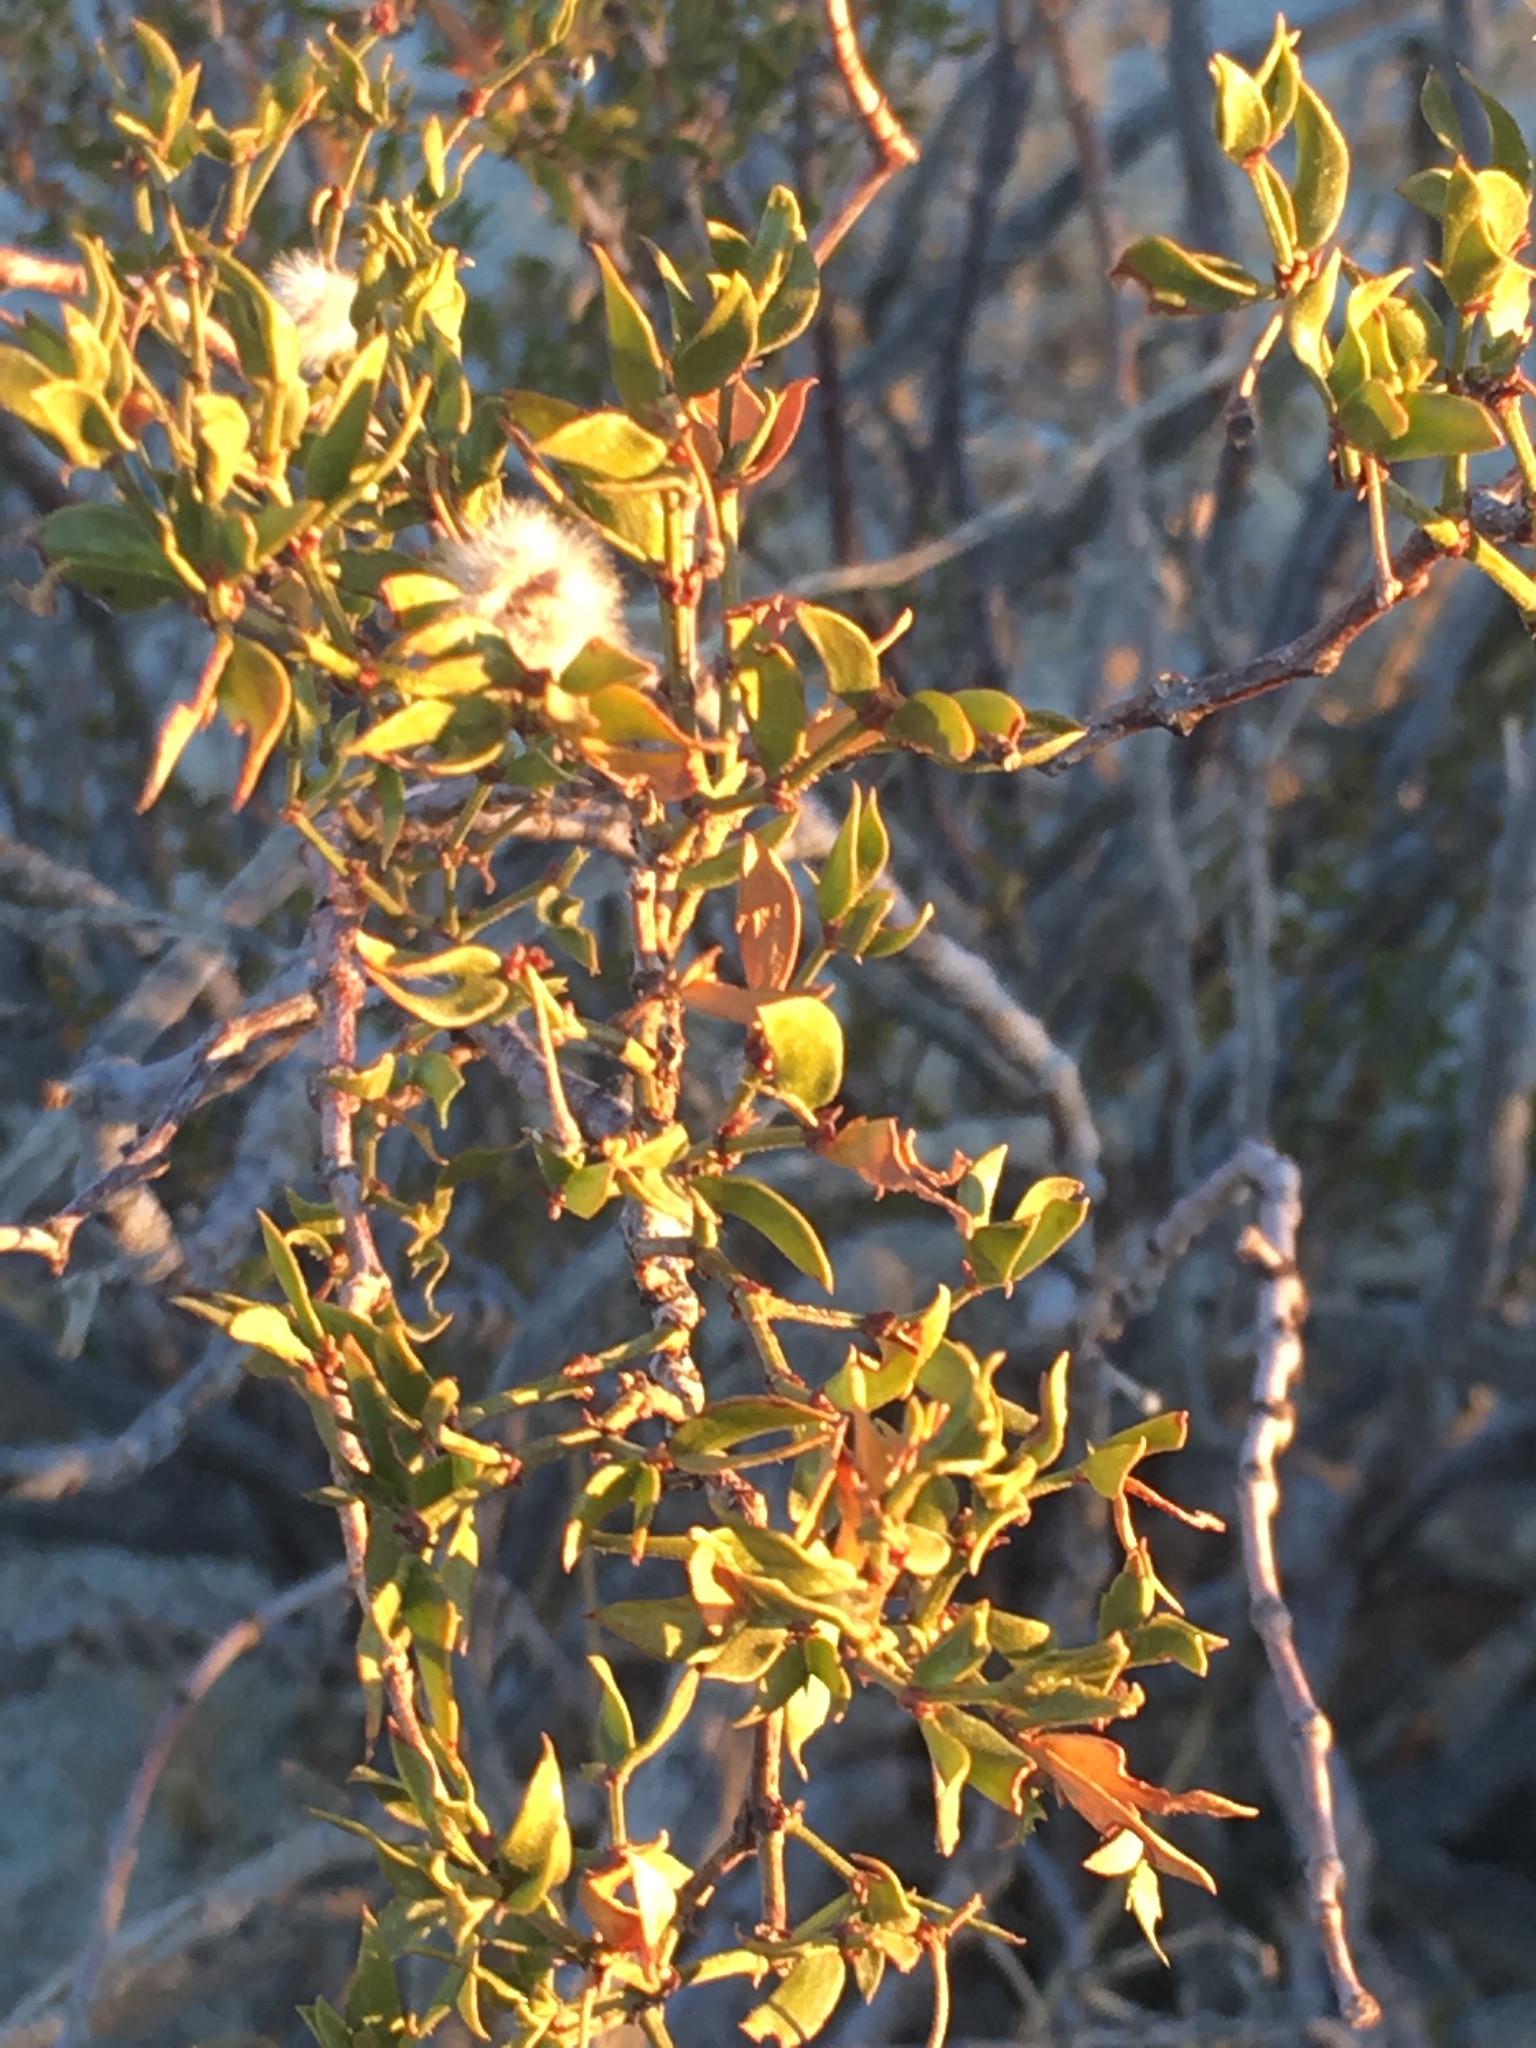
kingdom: Plantae
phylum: Tracheophyta
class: Magnoliopsida
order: Zygophyllales
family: Zygophyllaceae
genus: Larrea
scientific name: Larrea tridentata
